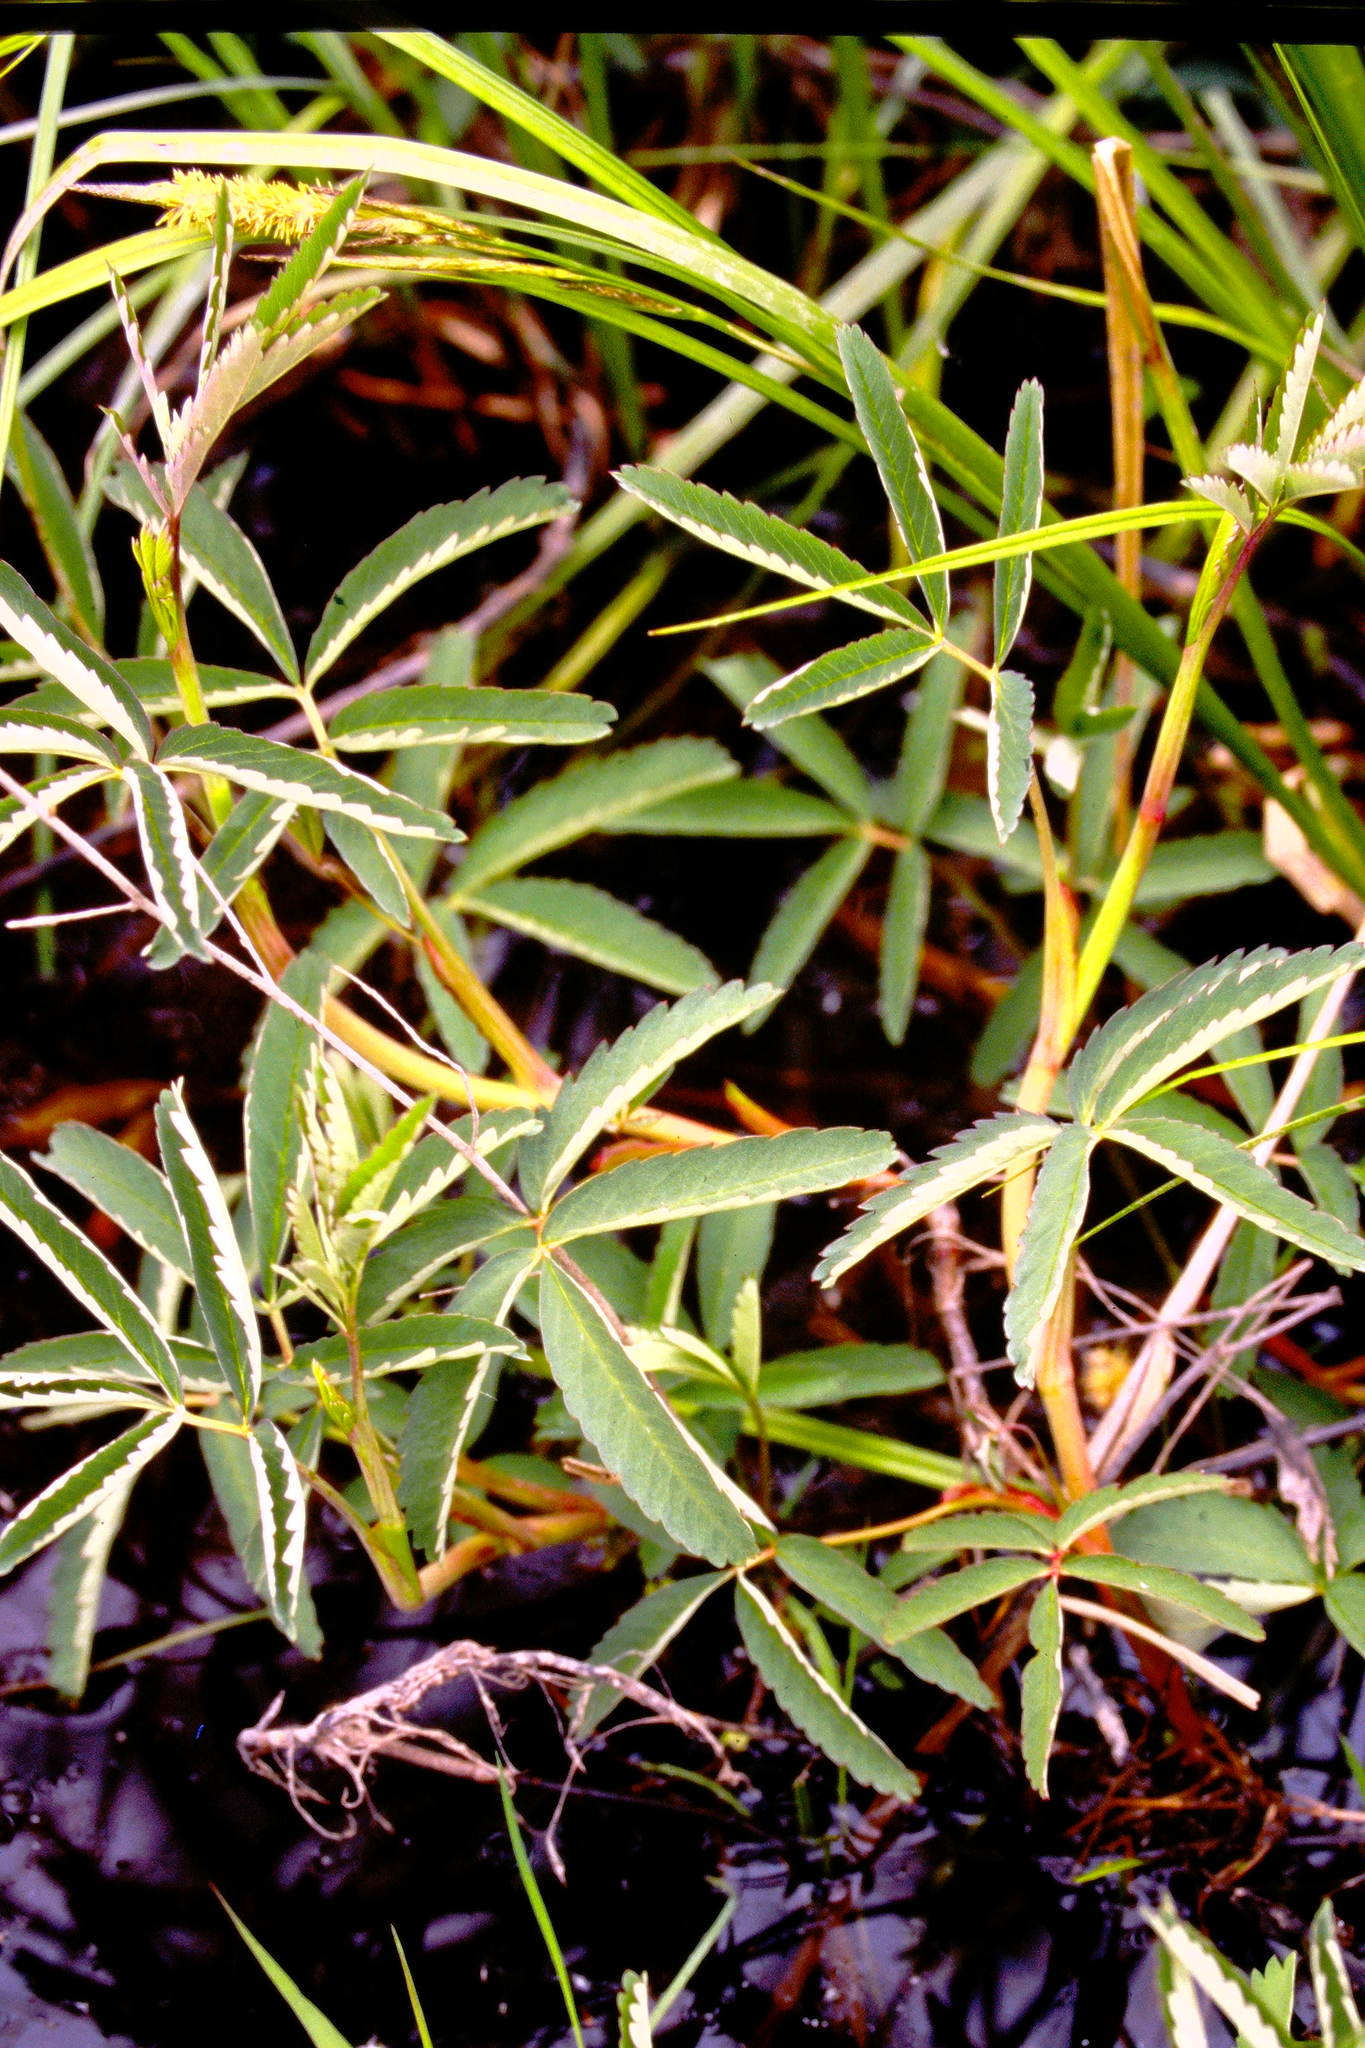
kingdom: Plantae
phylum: Tracheophyta
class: Magnoliopsida
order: Rosales
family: Rosaceae
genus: Comarum
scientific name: Comarum palustre
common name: Marsh cinquefoil
